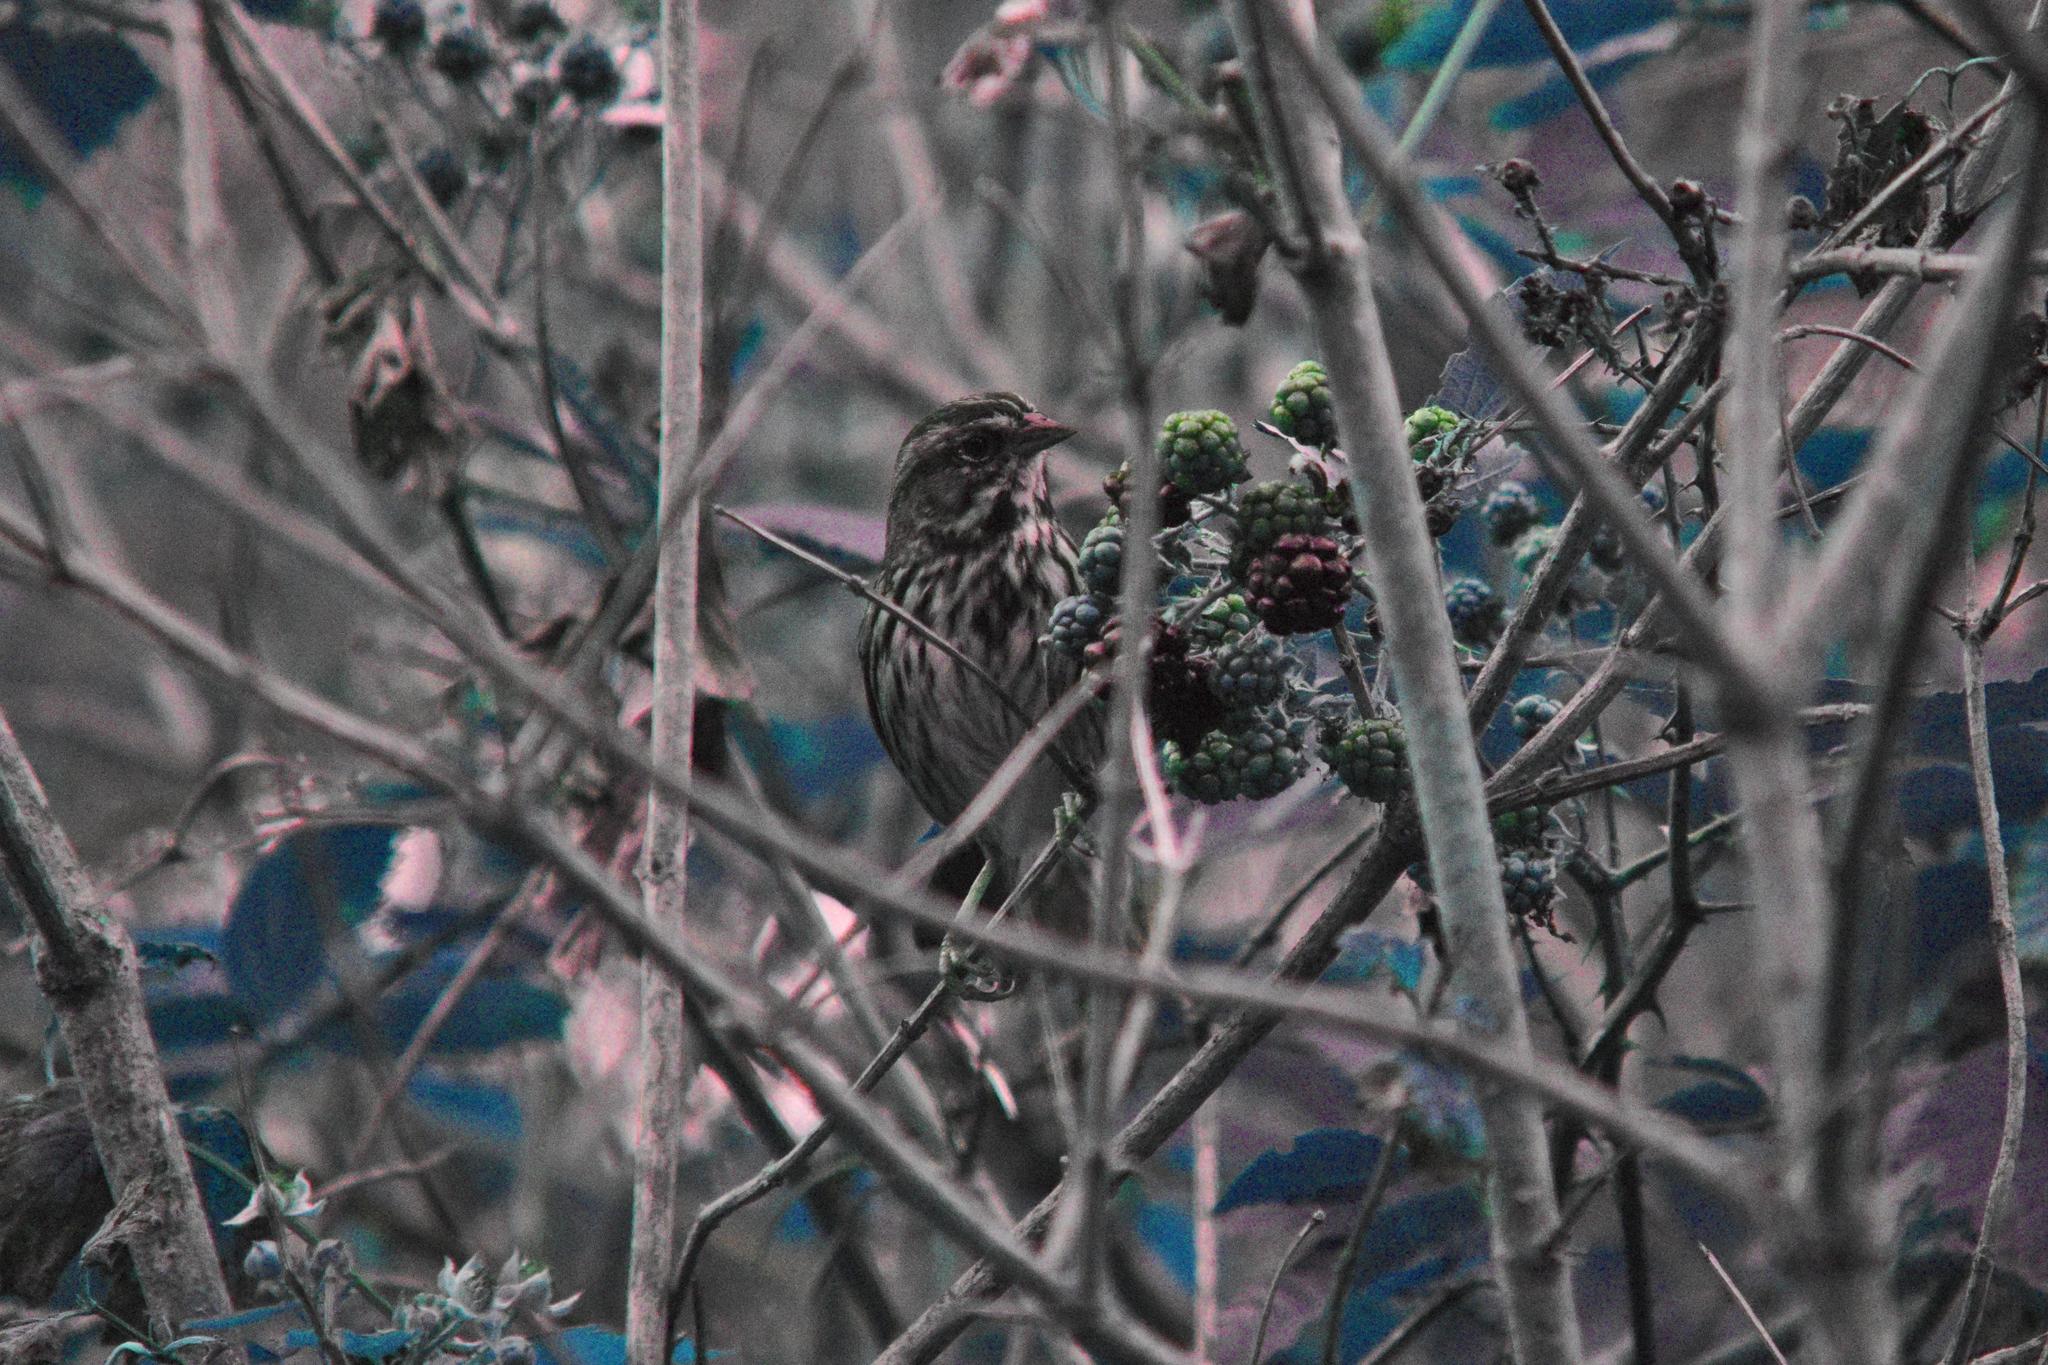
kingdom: Animalia
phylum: Chordata
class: Aves
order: Passeriformes
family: Passerellidae
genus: Melospiza
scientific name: Melospiza melodia
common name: Song sparrow
